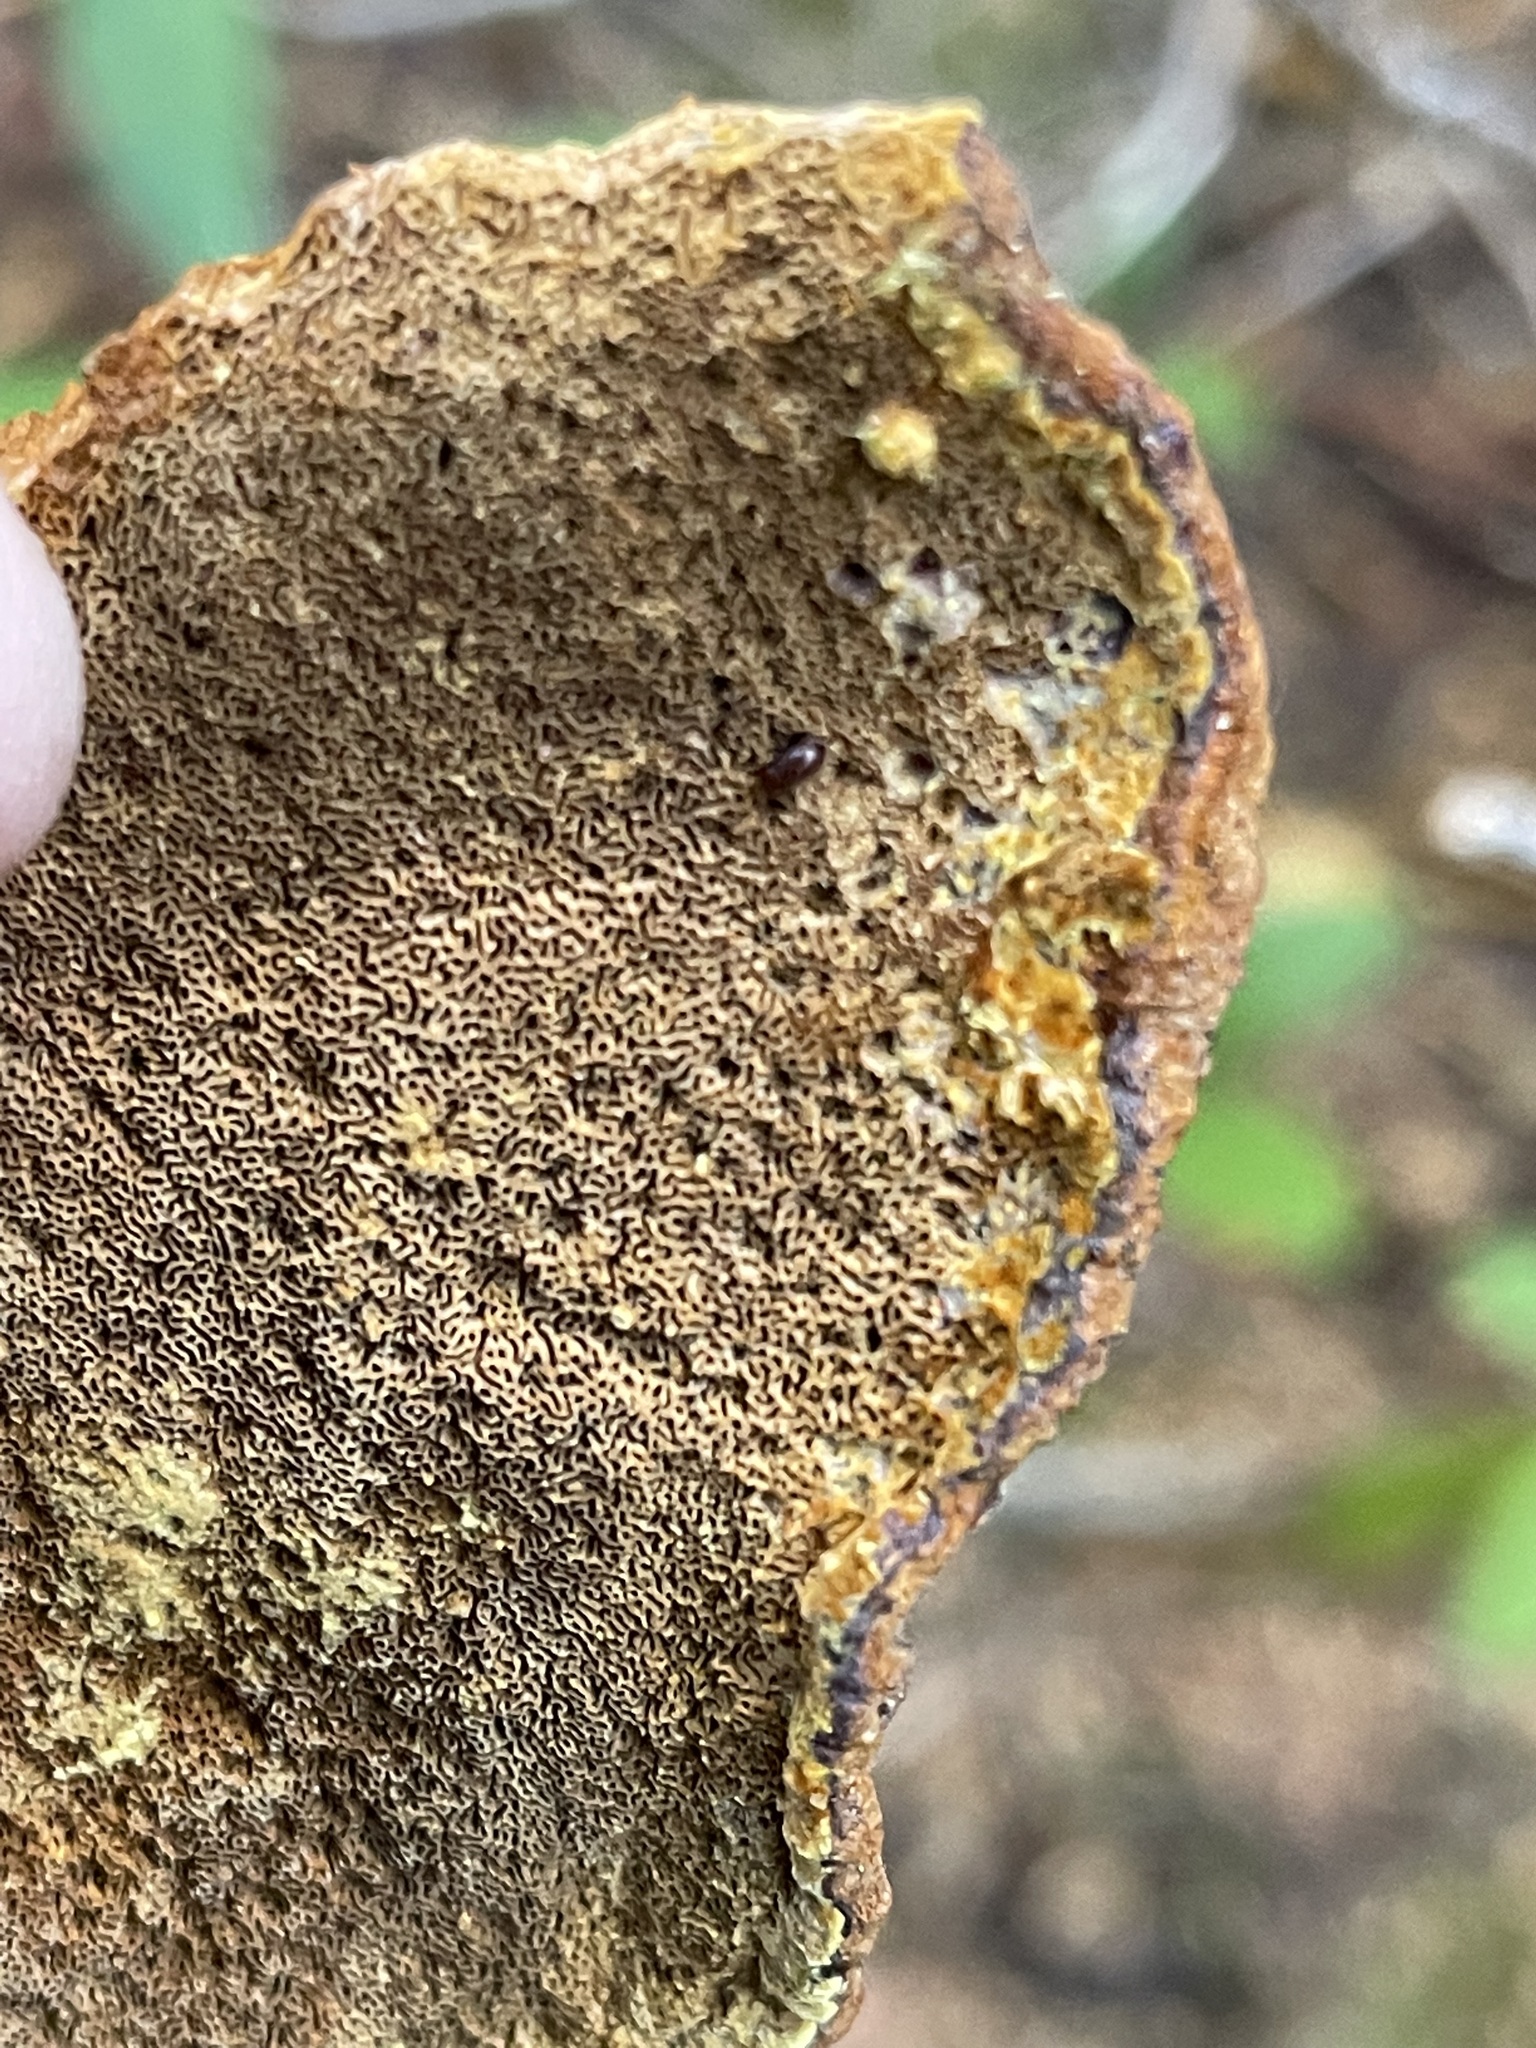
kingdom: Fungi
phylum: Basidiomycota
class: Agaricomycetes
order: Hymenochaetales
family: Hymenochaetaceae
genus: Porodaedalea
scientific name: Porodaedalea pini
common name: Pine bracket
